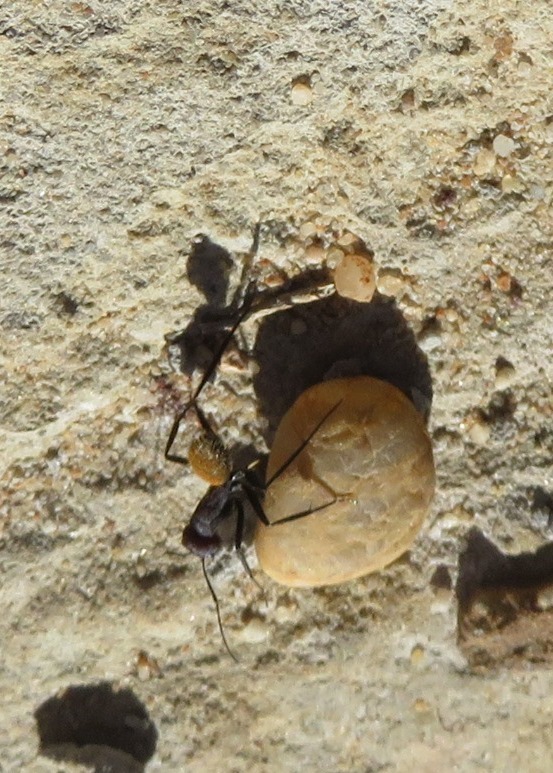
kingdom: Animalia
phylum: Arthropoda
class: Insecta
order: Hymenoptera
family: Formicidae
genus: Camponotus
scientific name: Camponotus fulvopilosus
